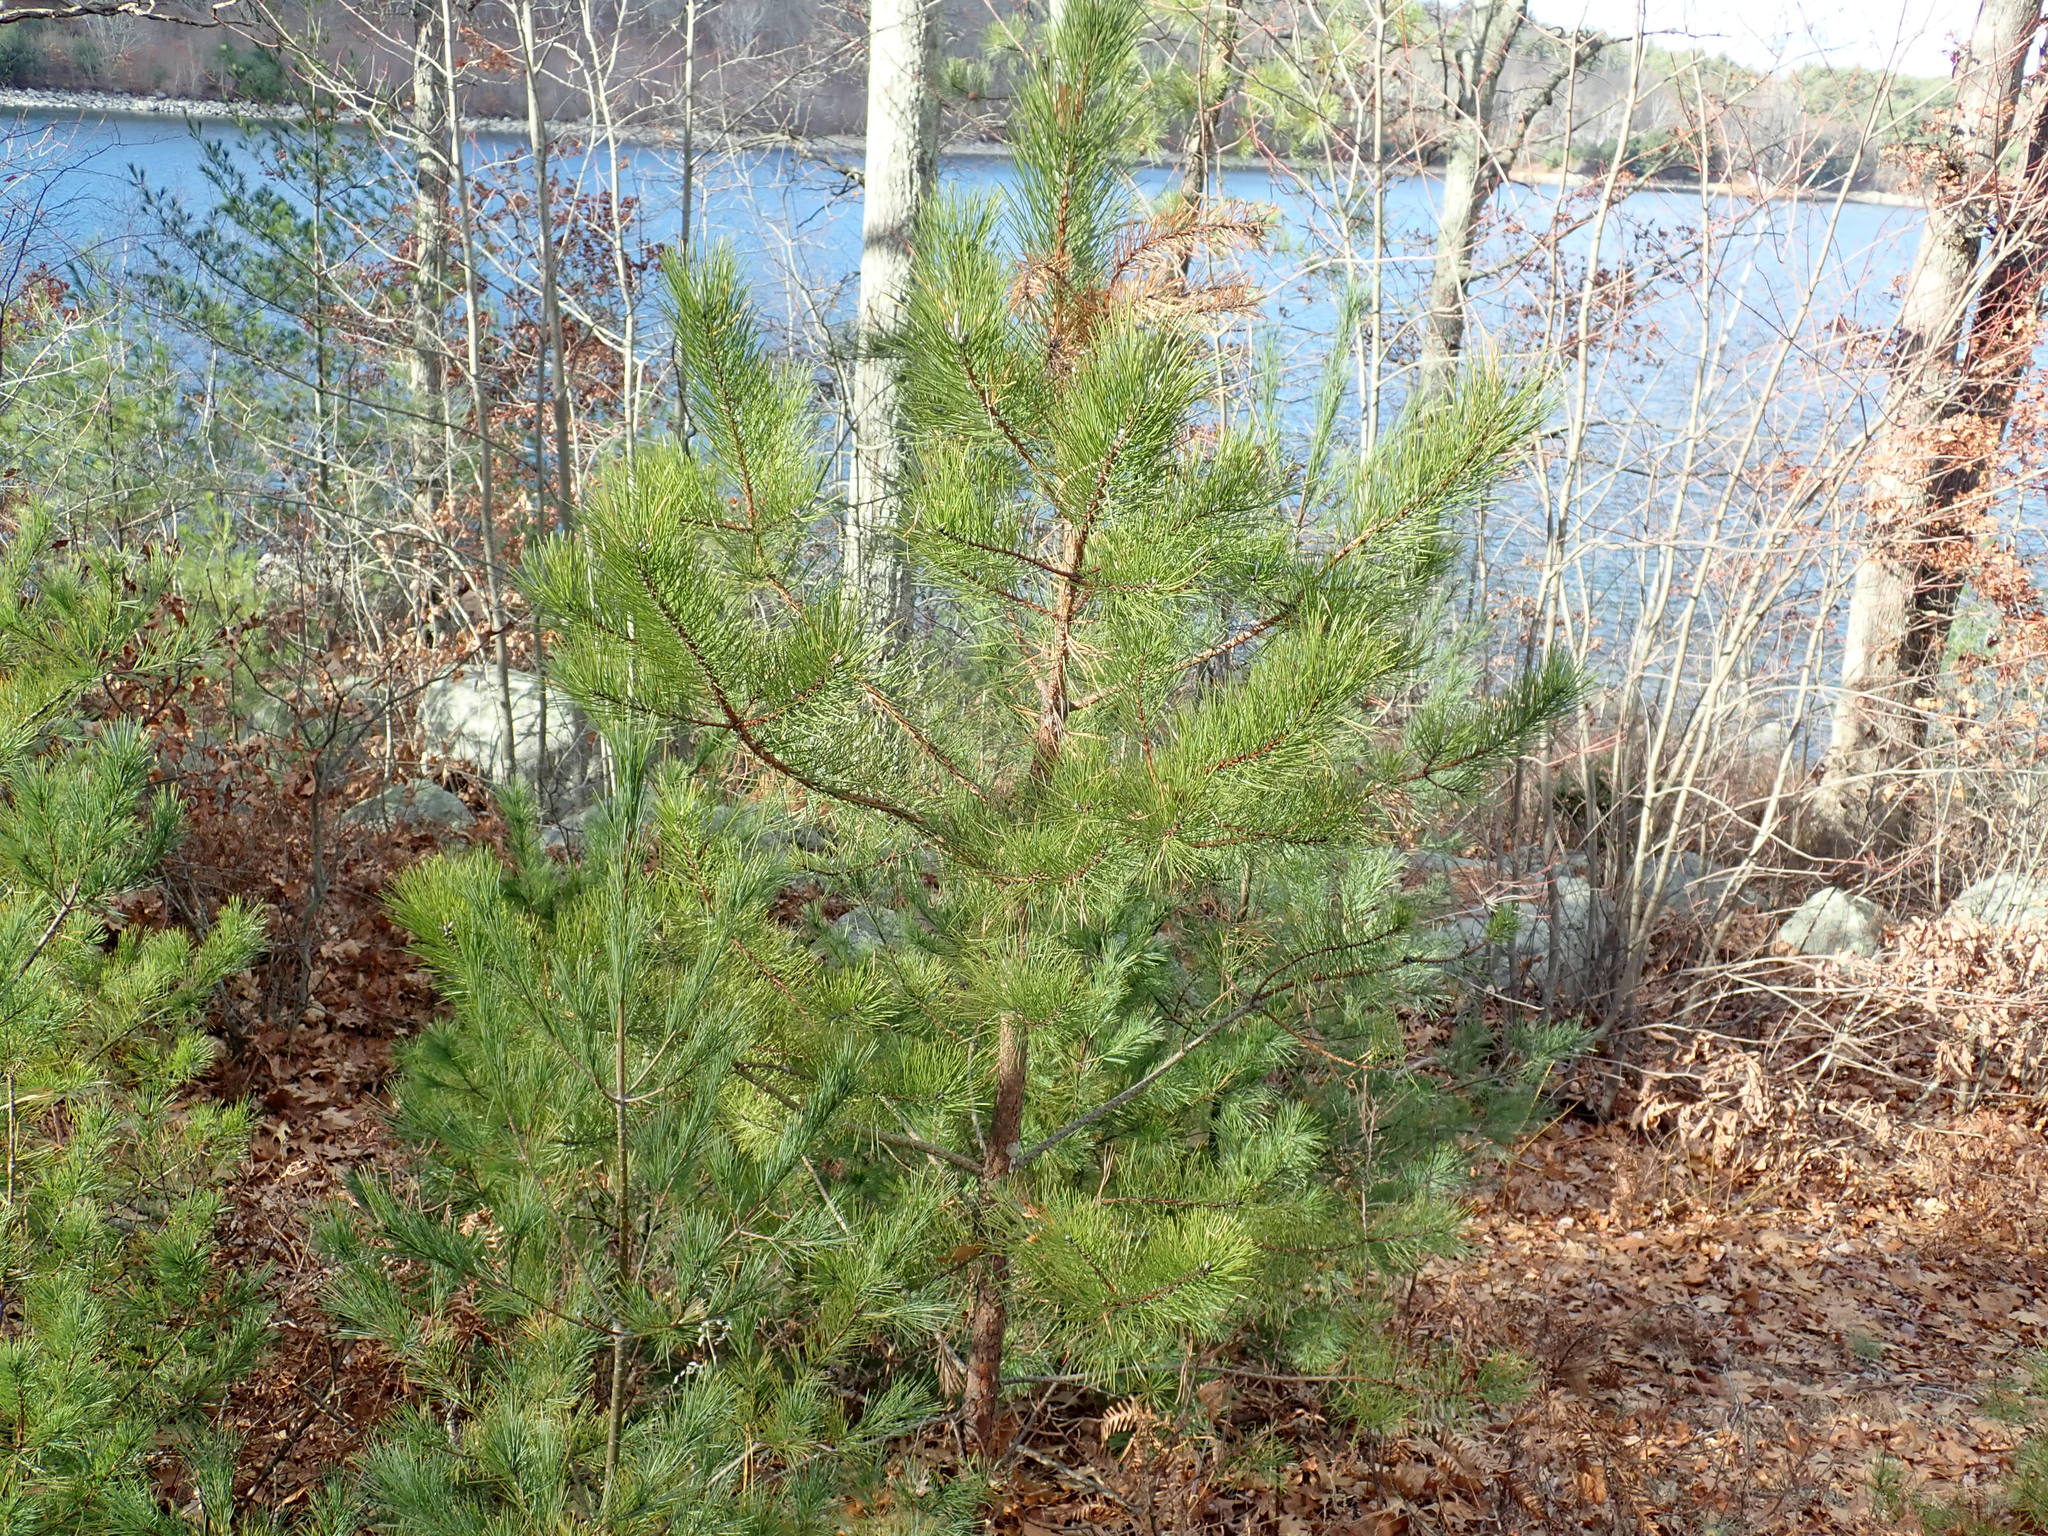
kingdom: Plantae
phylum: Tracheophyta
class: Pinopsida
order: Pinales
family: Pinaceae
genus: Pinus
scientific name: Pinus rigida
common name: Pitch pine
